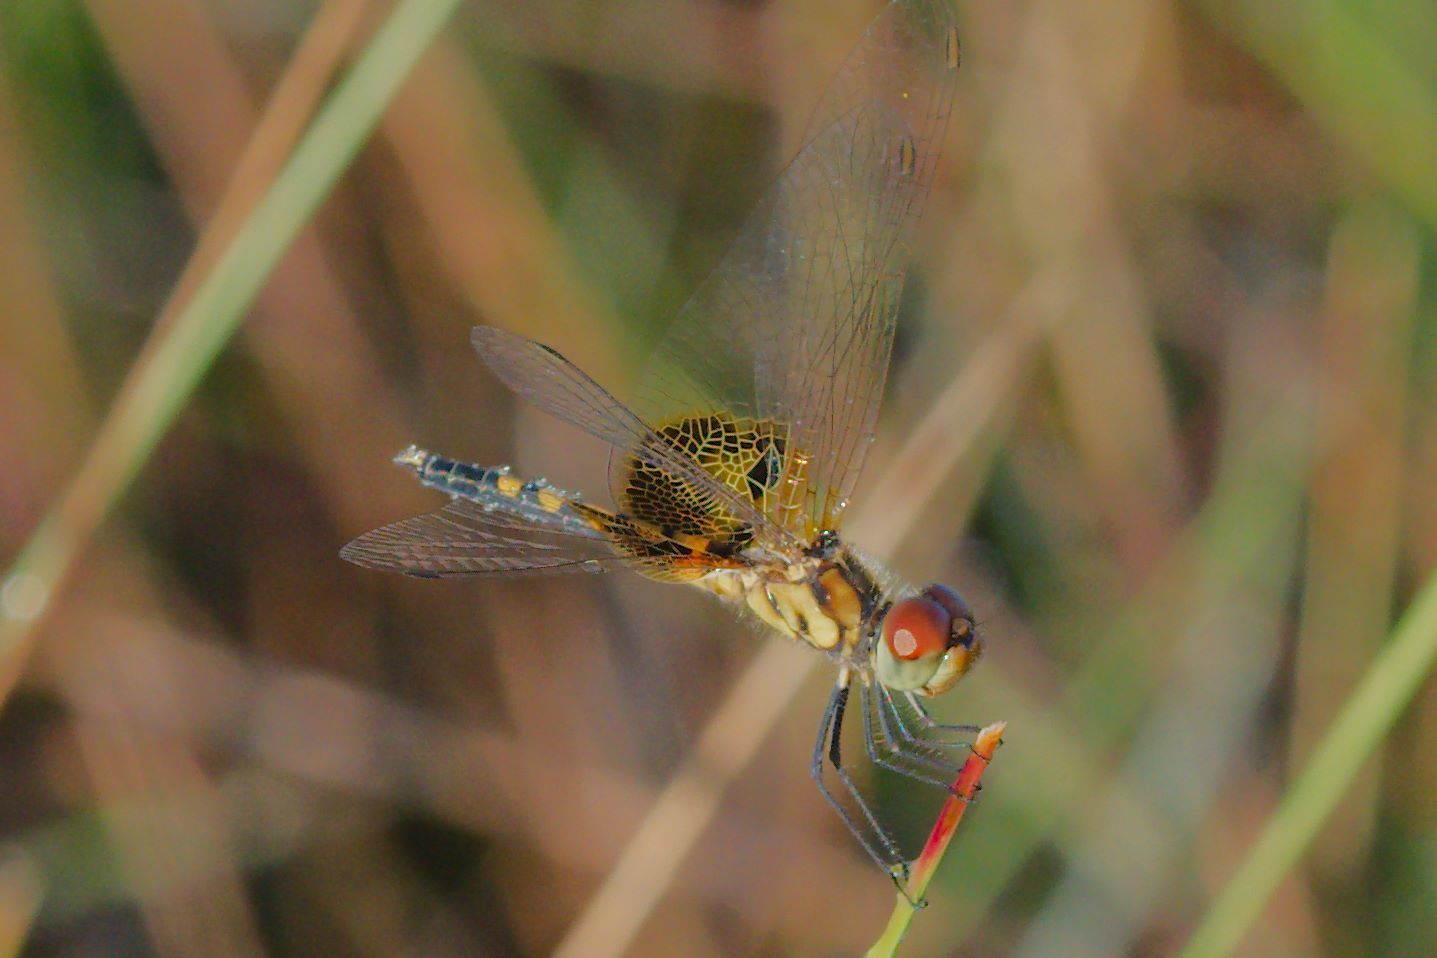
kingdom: Animalia
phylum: Arthropoda
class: Insecta
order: Odonata
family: Libellulidae
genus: Celithemis
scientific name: Celithemis amanda
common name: Amanda's pennant
